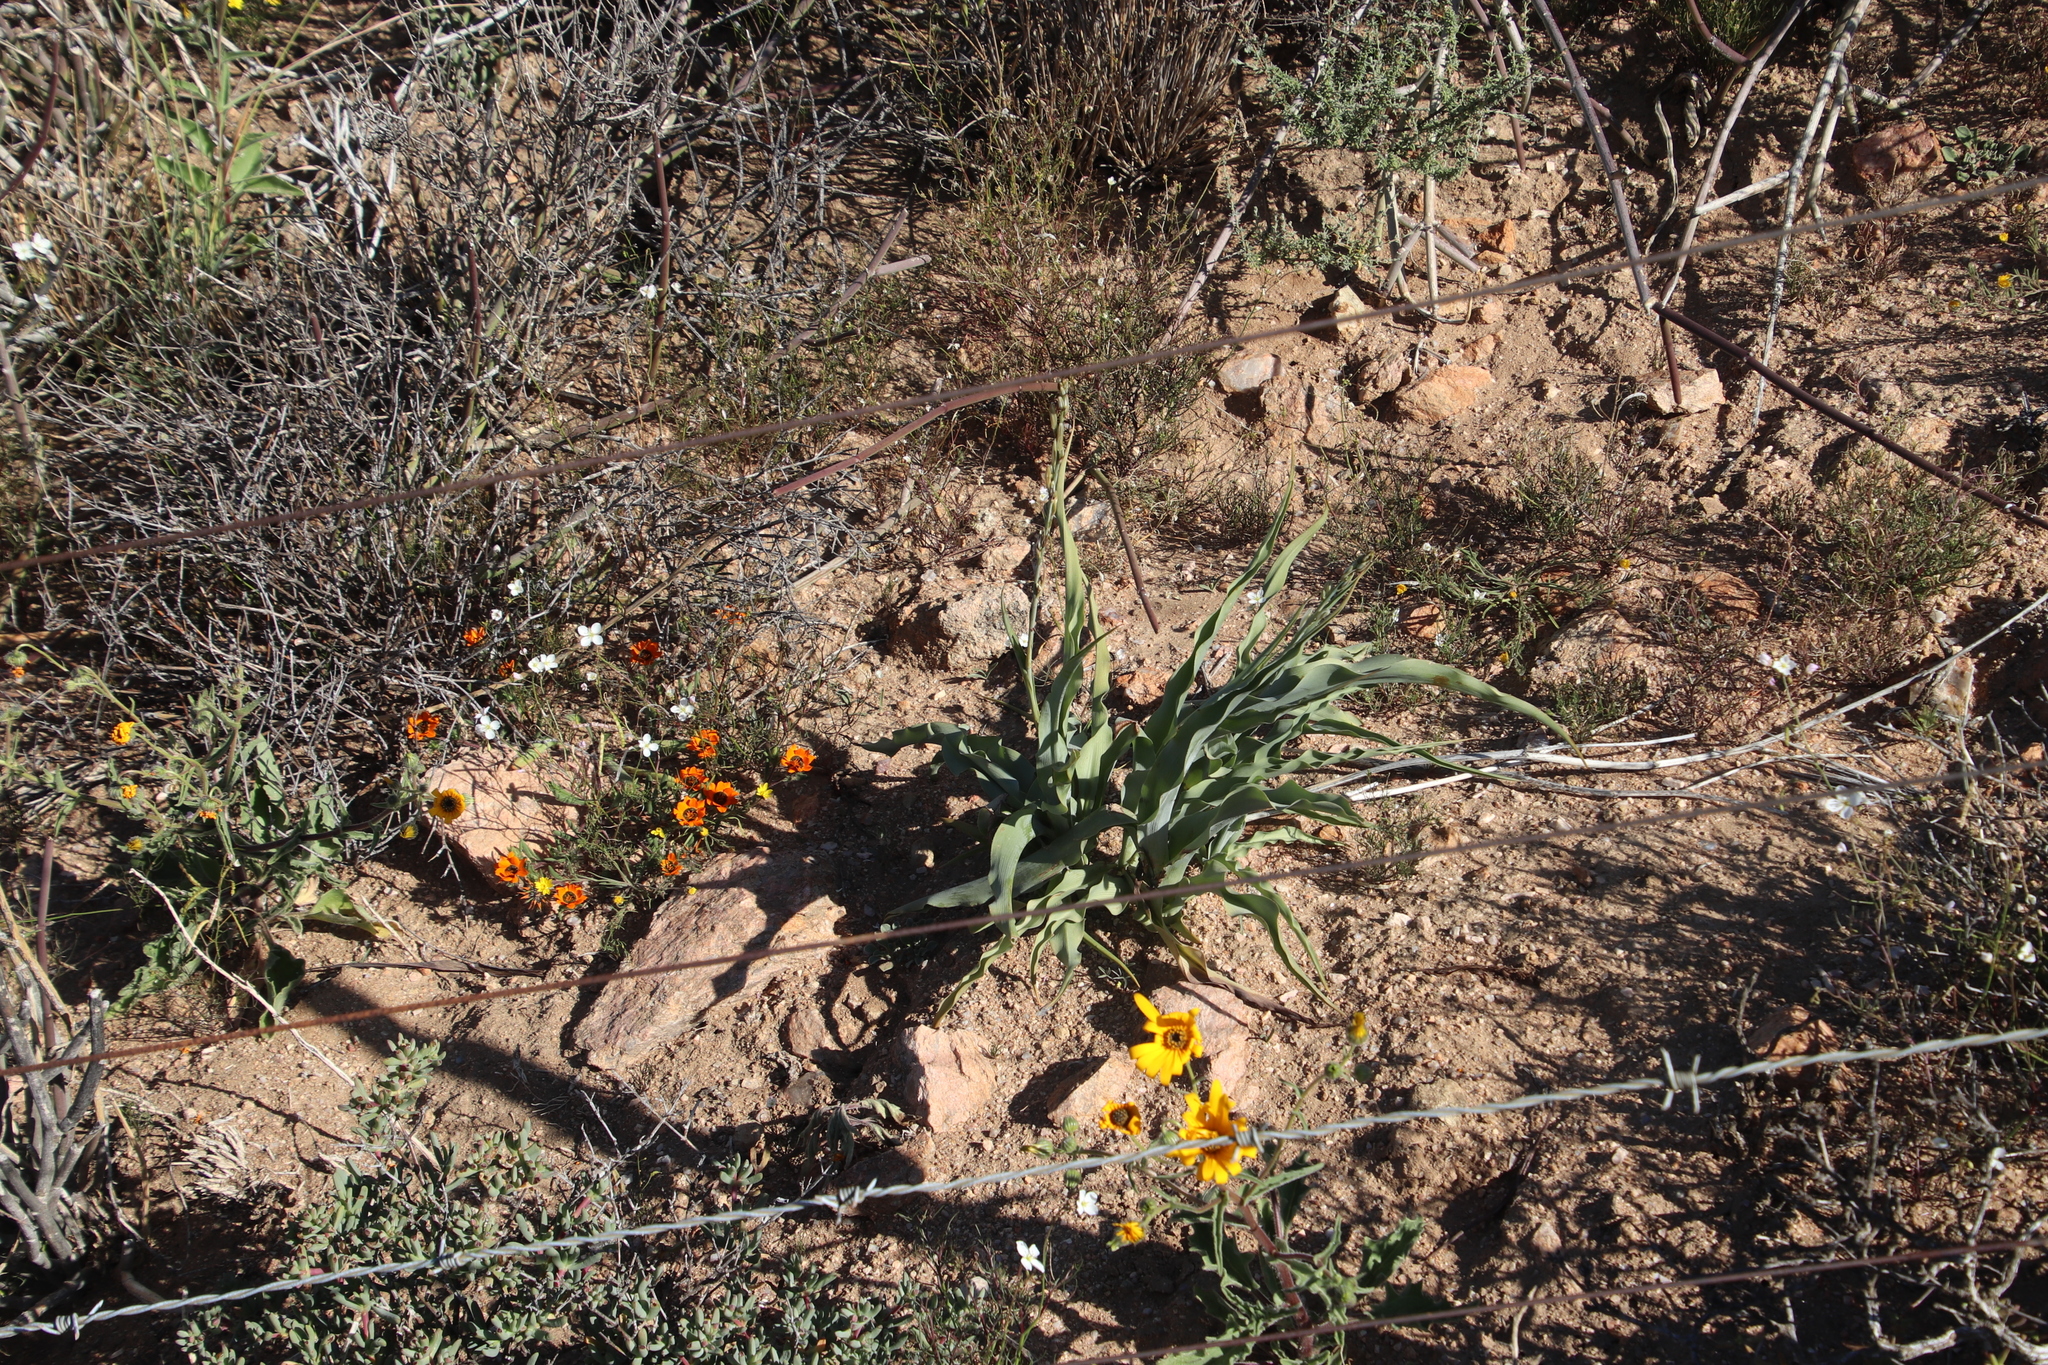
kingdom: Plantae
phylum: Tracheophyta
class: Liliopsida
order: Asparagales
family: Asparagaceae
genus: Veltheimia
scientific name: Veltheimia capensis
